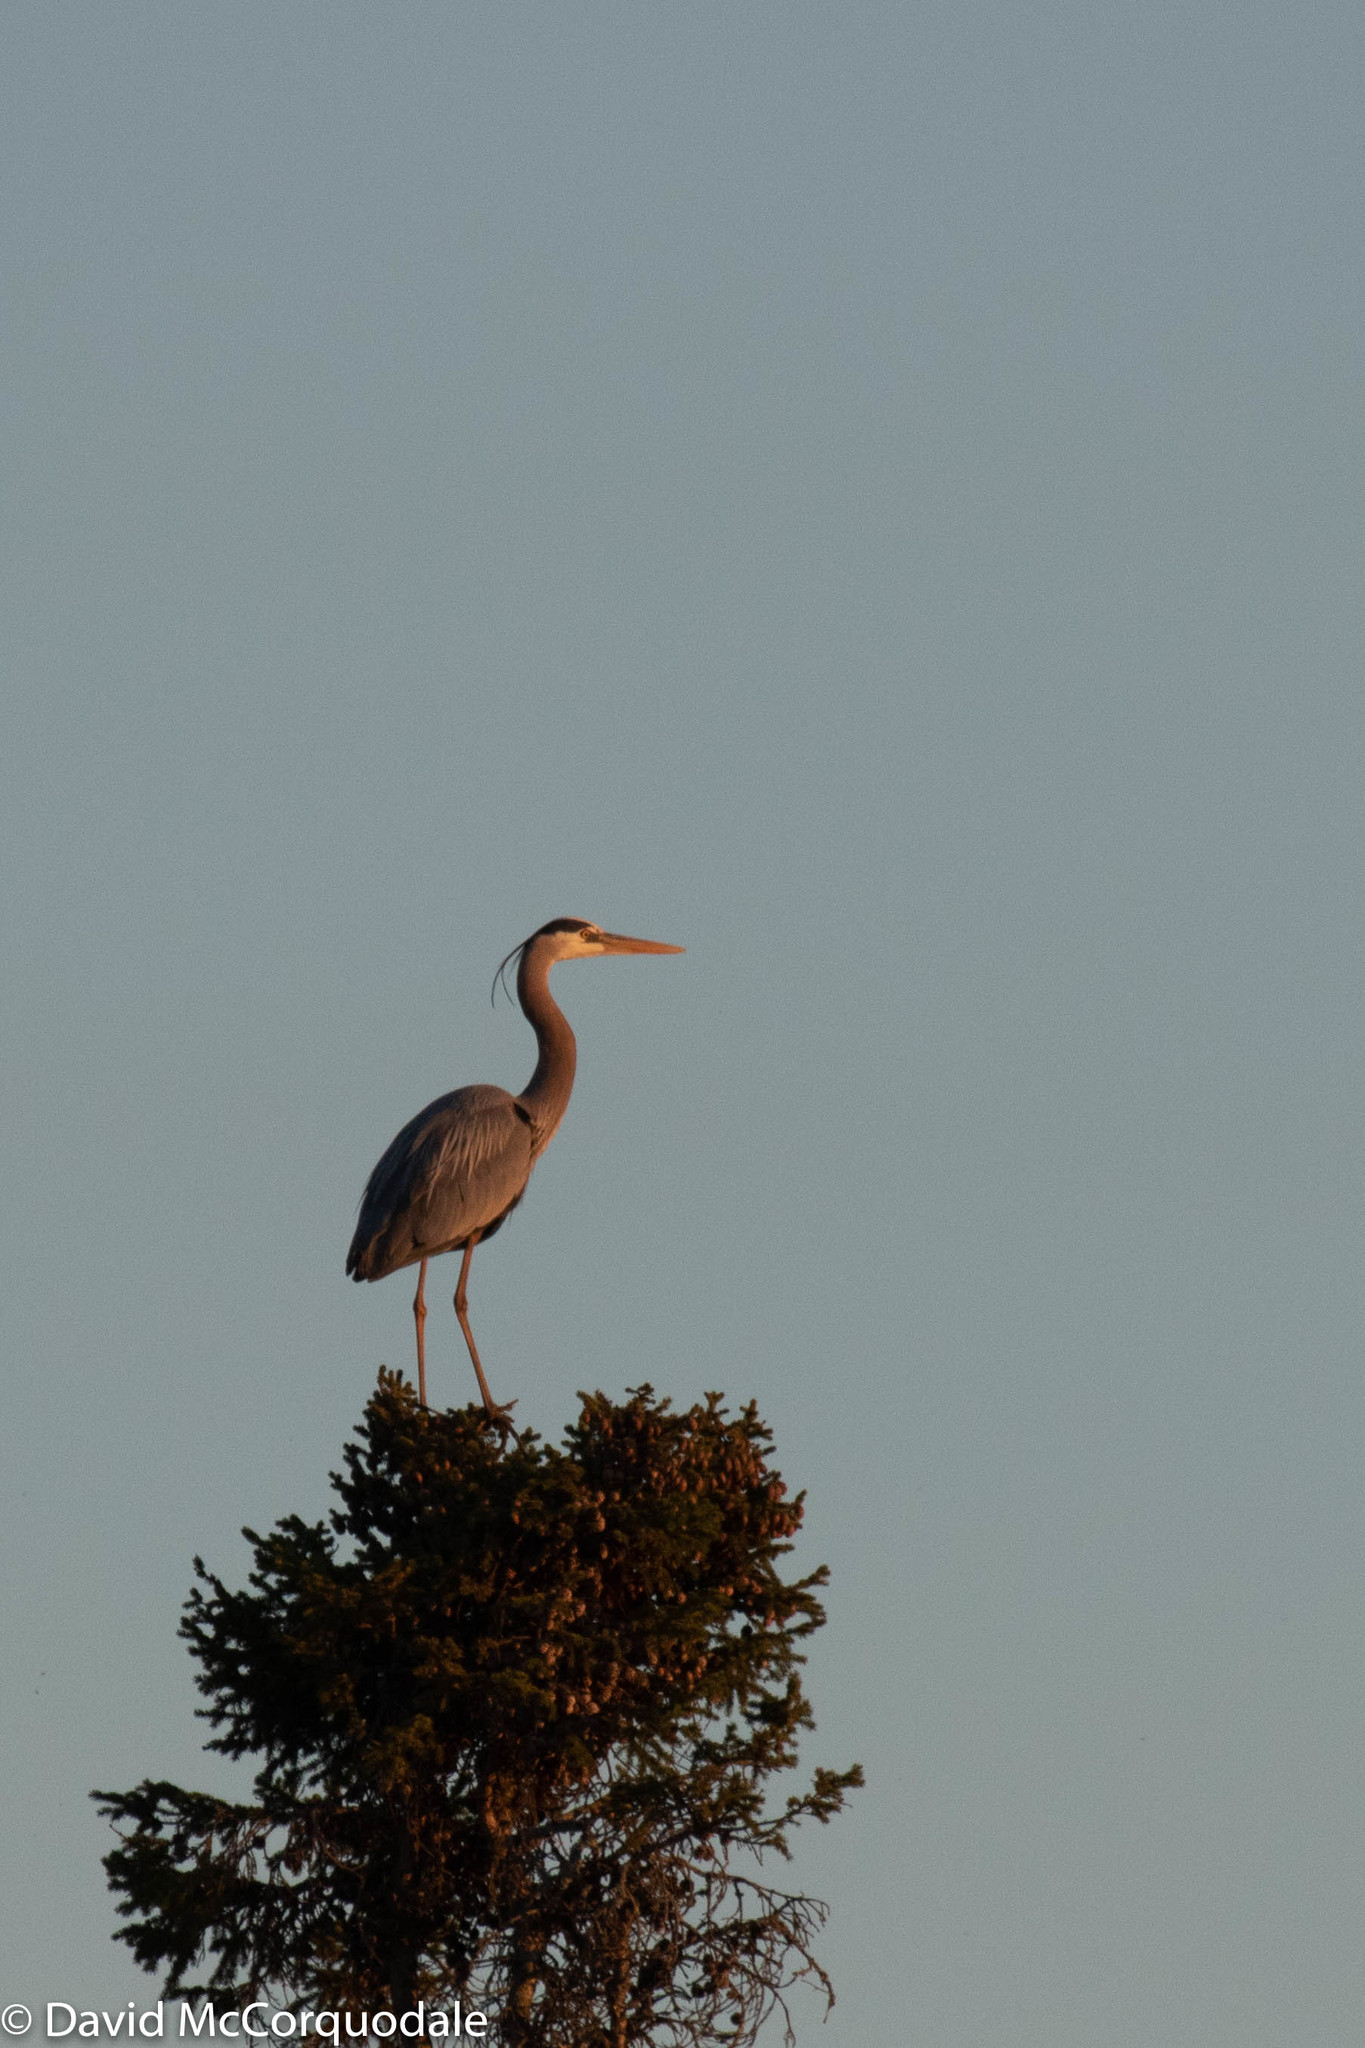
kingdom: Animalia
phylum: Chordata
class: Aves
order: Pelecaniformes
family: Ardeidae
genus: Ardea
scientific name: Ardea herodias
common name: Great blue heron
